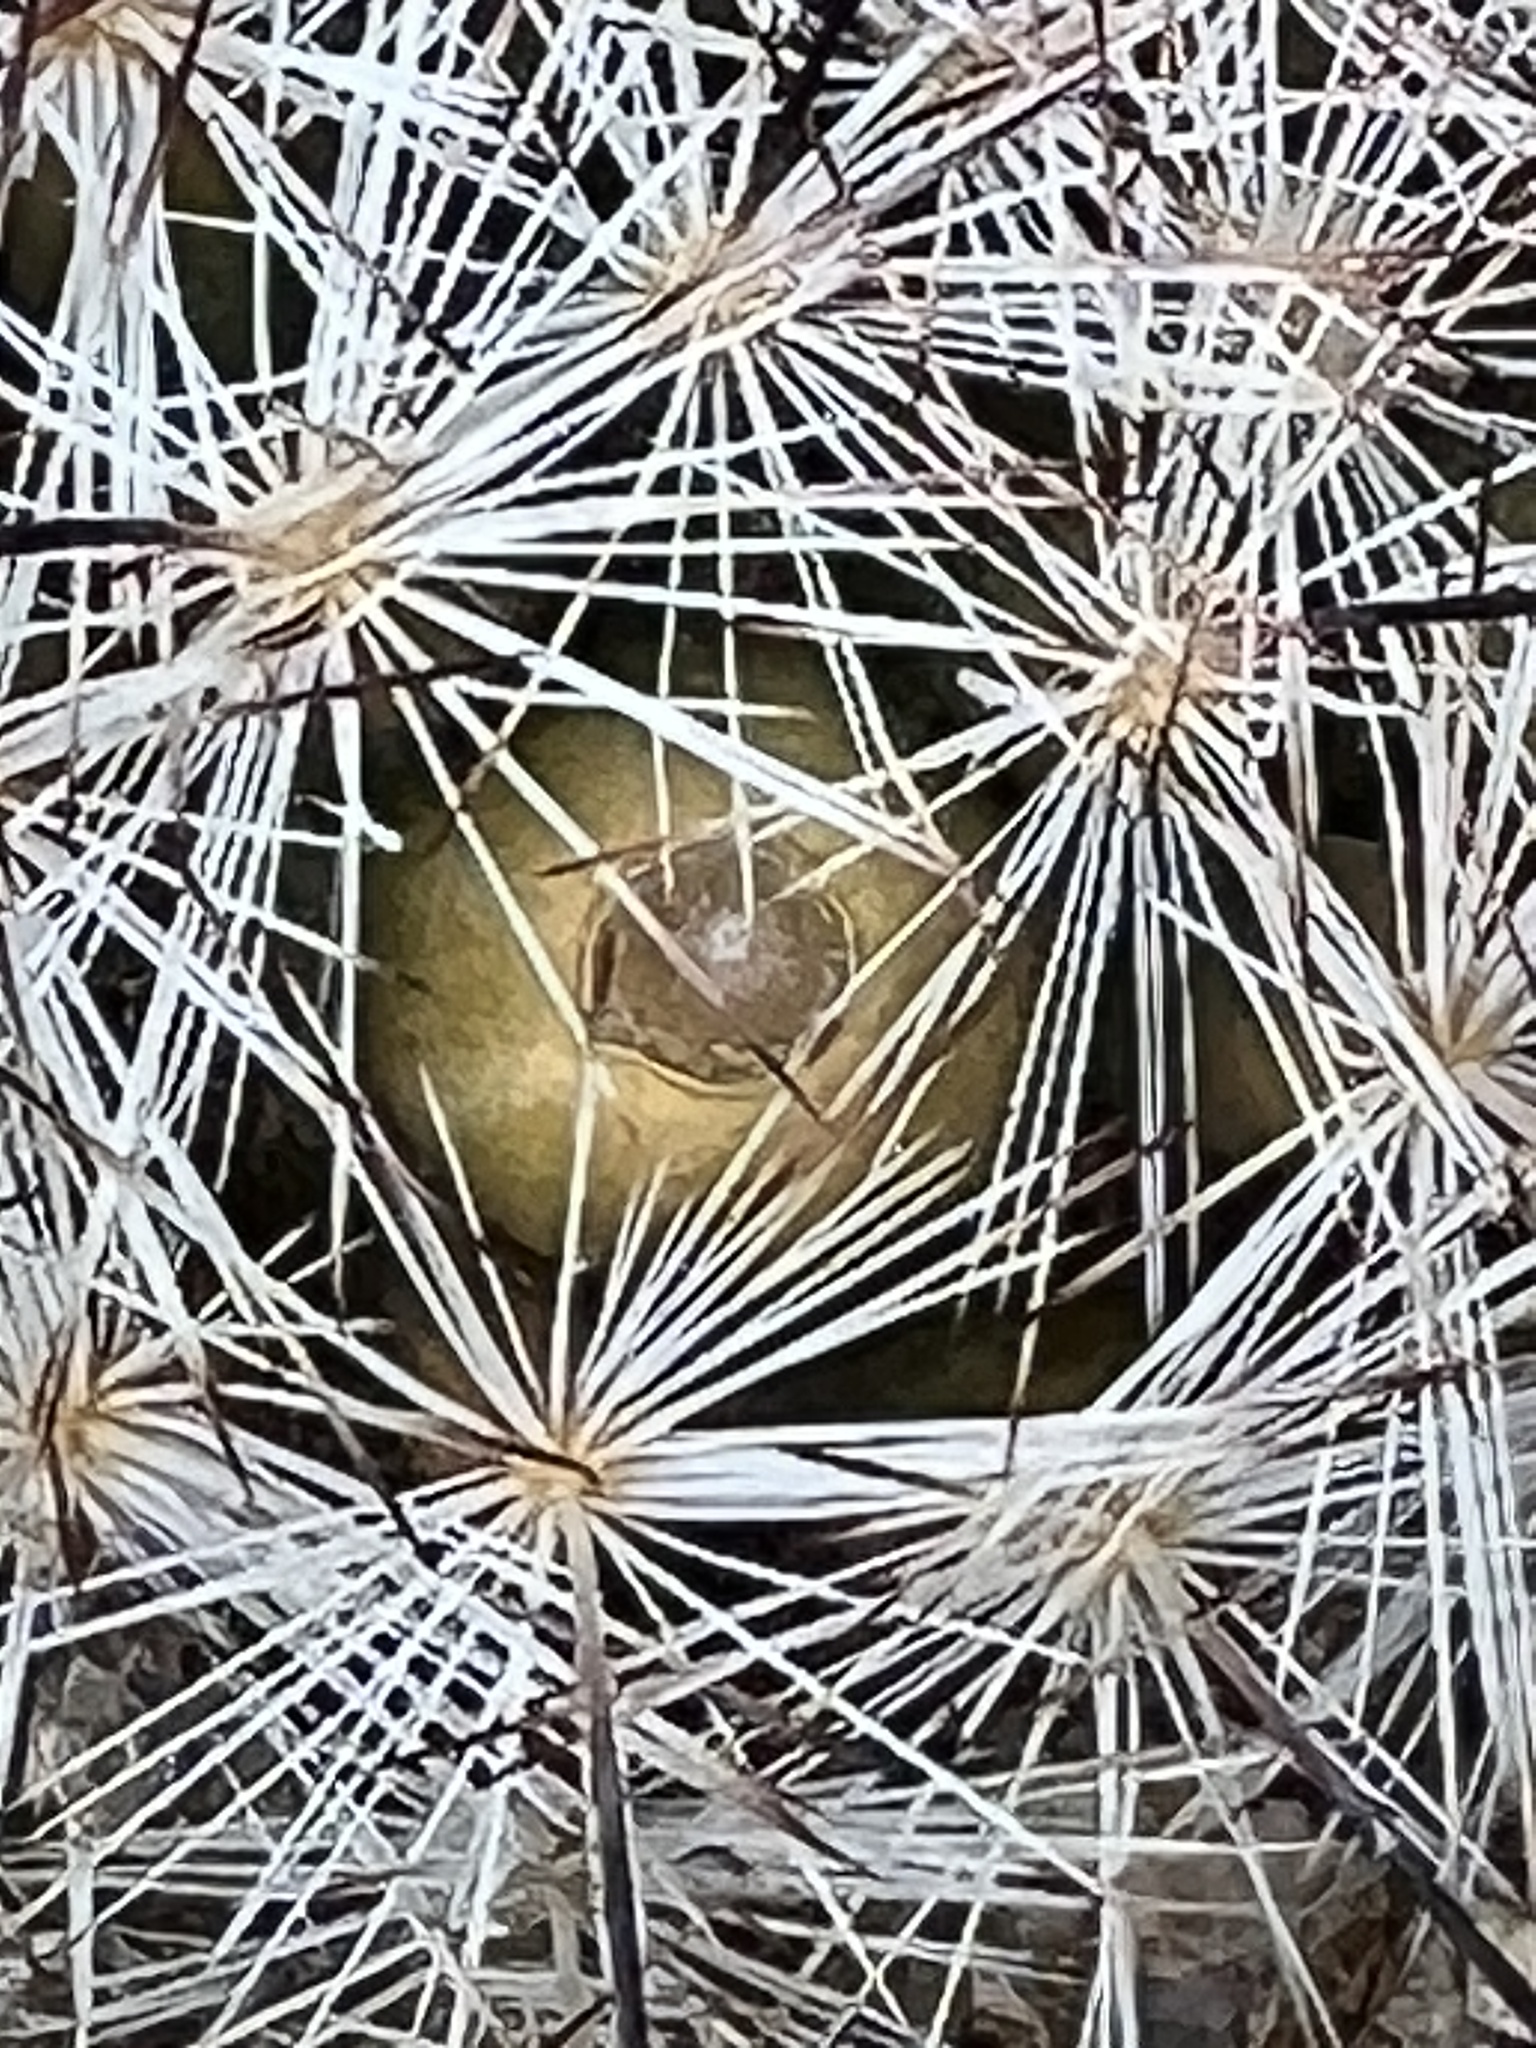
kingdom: Plantae
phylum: Tracheophyta
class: Magnoliopsida
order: Caryophyllales
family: Cactaceae
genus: Cochemiea
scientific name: Cochemiea tetrancistra
